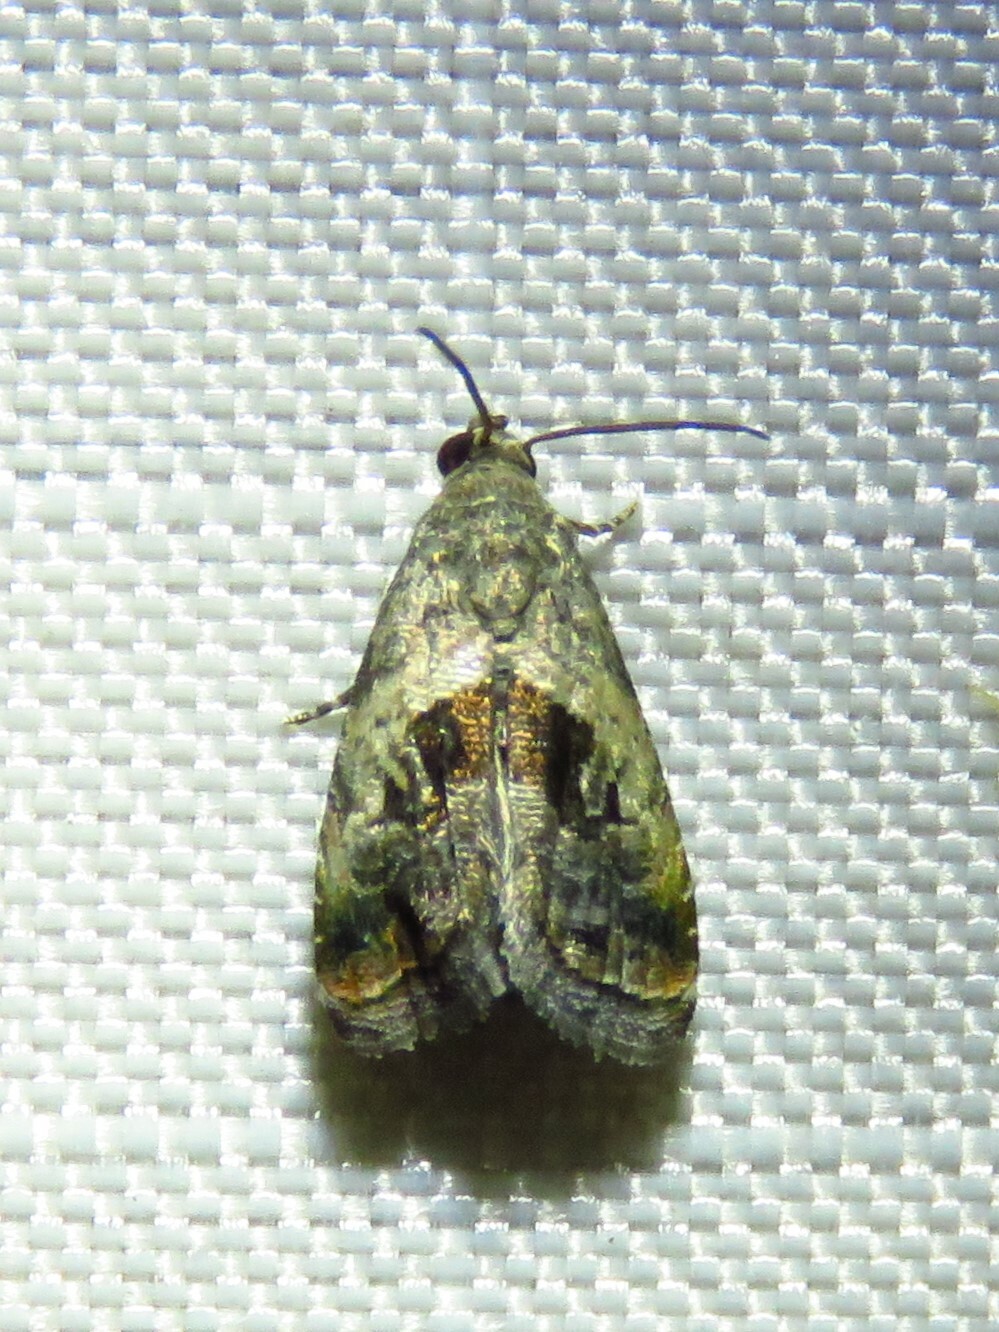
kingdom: Animalia
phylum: Arthropoda
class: Insecta
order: Lepidoptera
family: Noctuidae
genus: Tripudia
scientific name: Tripudia quadrifera
